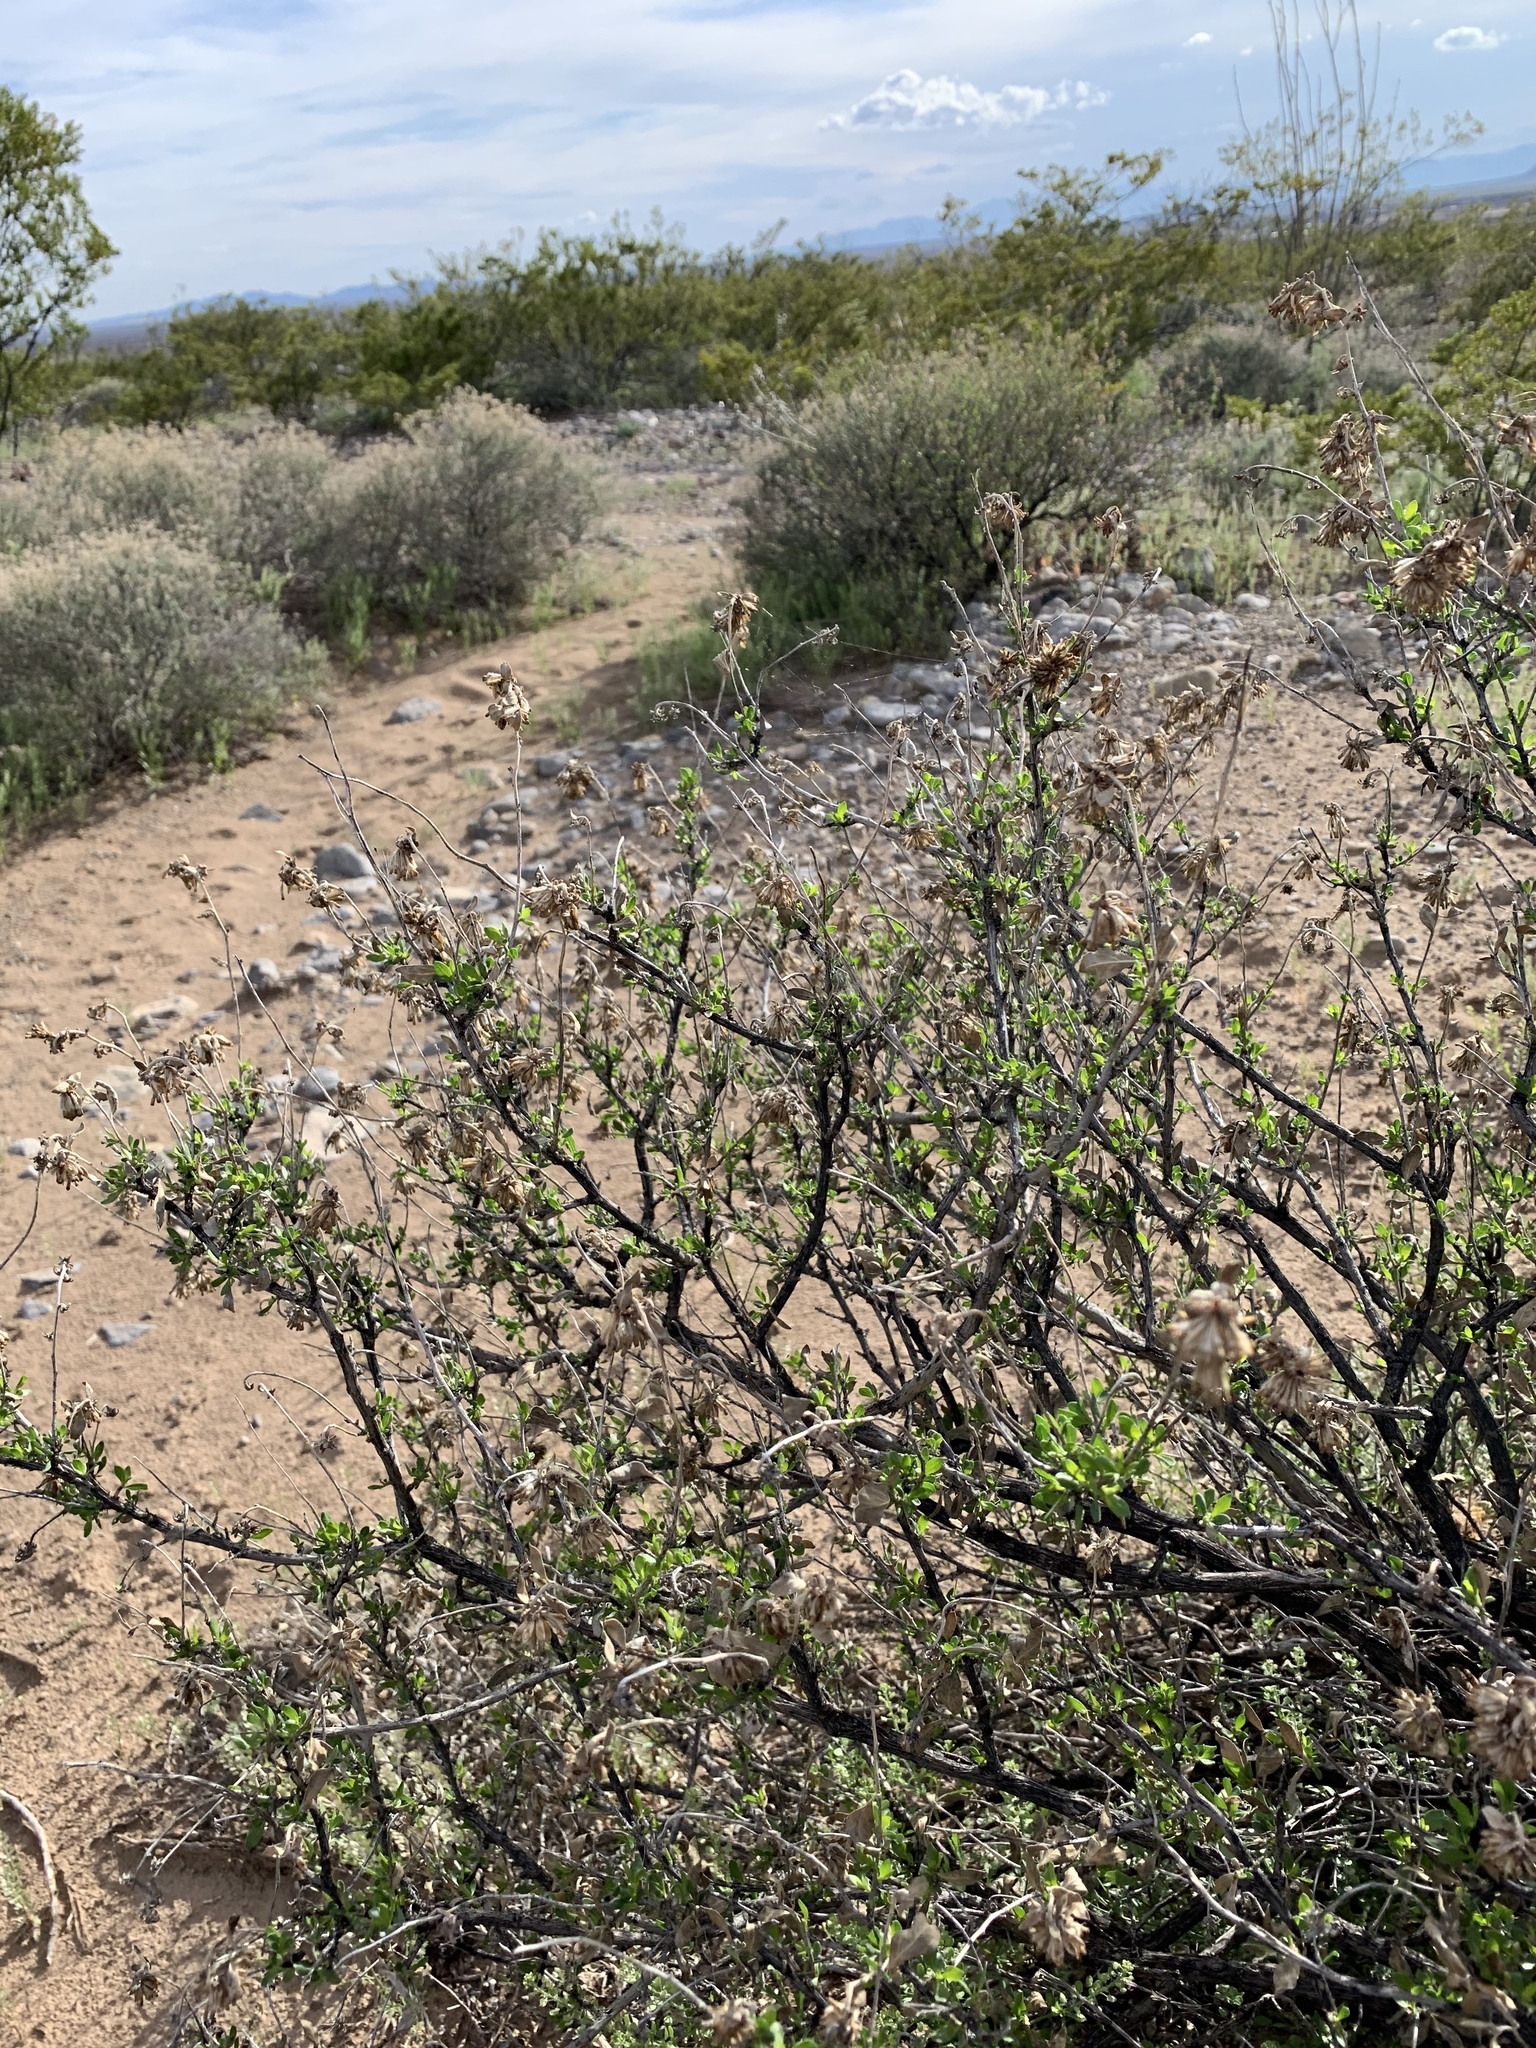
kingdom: Plantae
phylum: Tracheophyta
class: Magnoliopsida
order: Asterales
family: Asteraceae
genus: Flourensia
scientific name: Flourensia cernua
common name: Varnishbush
